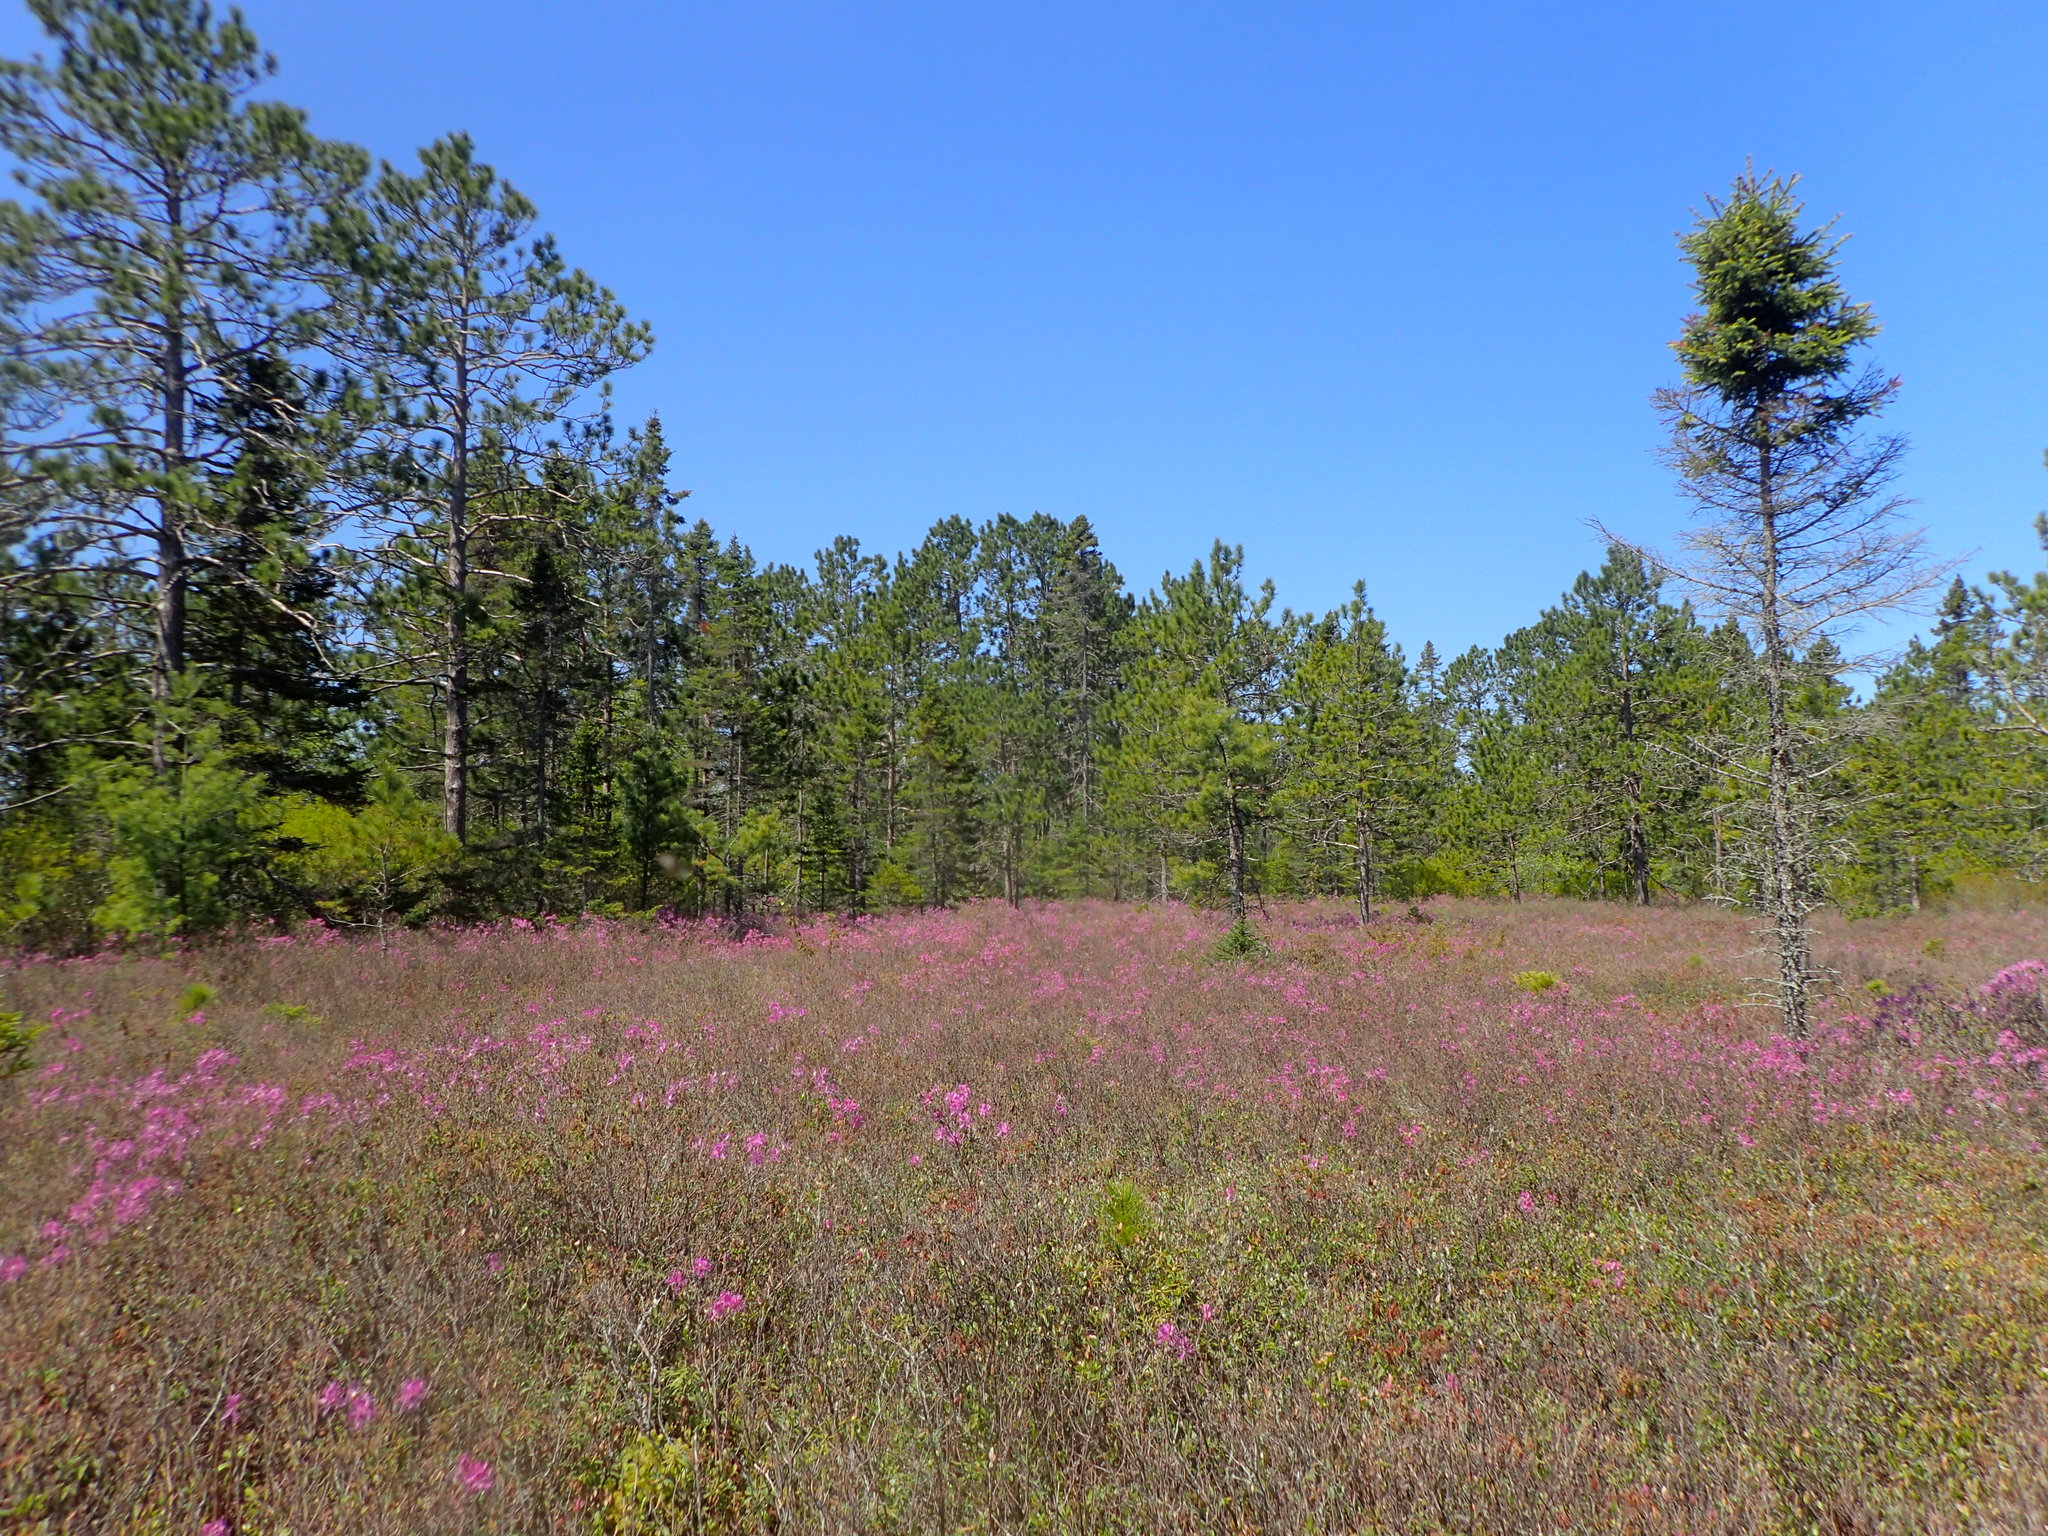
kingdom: Plantae
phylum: Tracheophyta
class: Magnoliopsida
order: Ericales
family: Ericaceae
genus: Rhododendron
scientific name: Rhododendron canadense
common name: Rhodora
